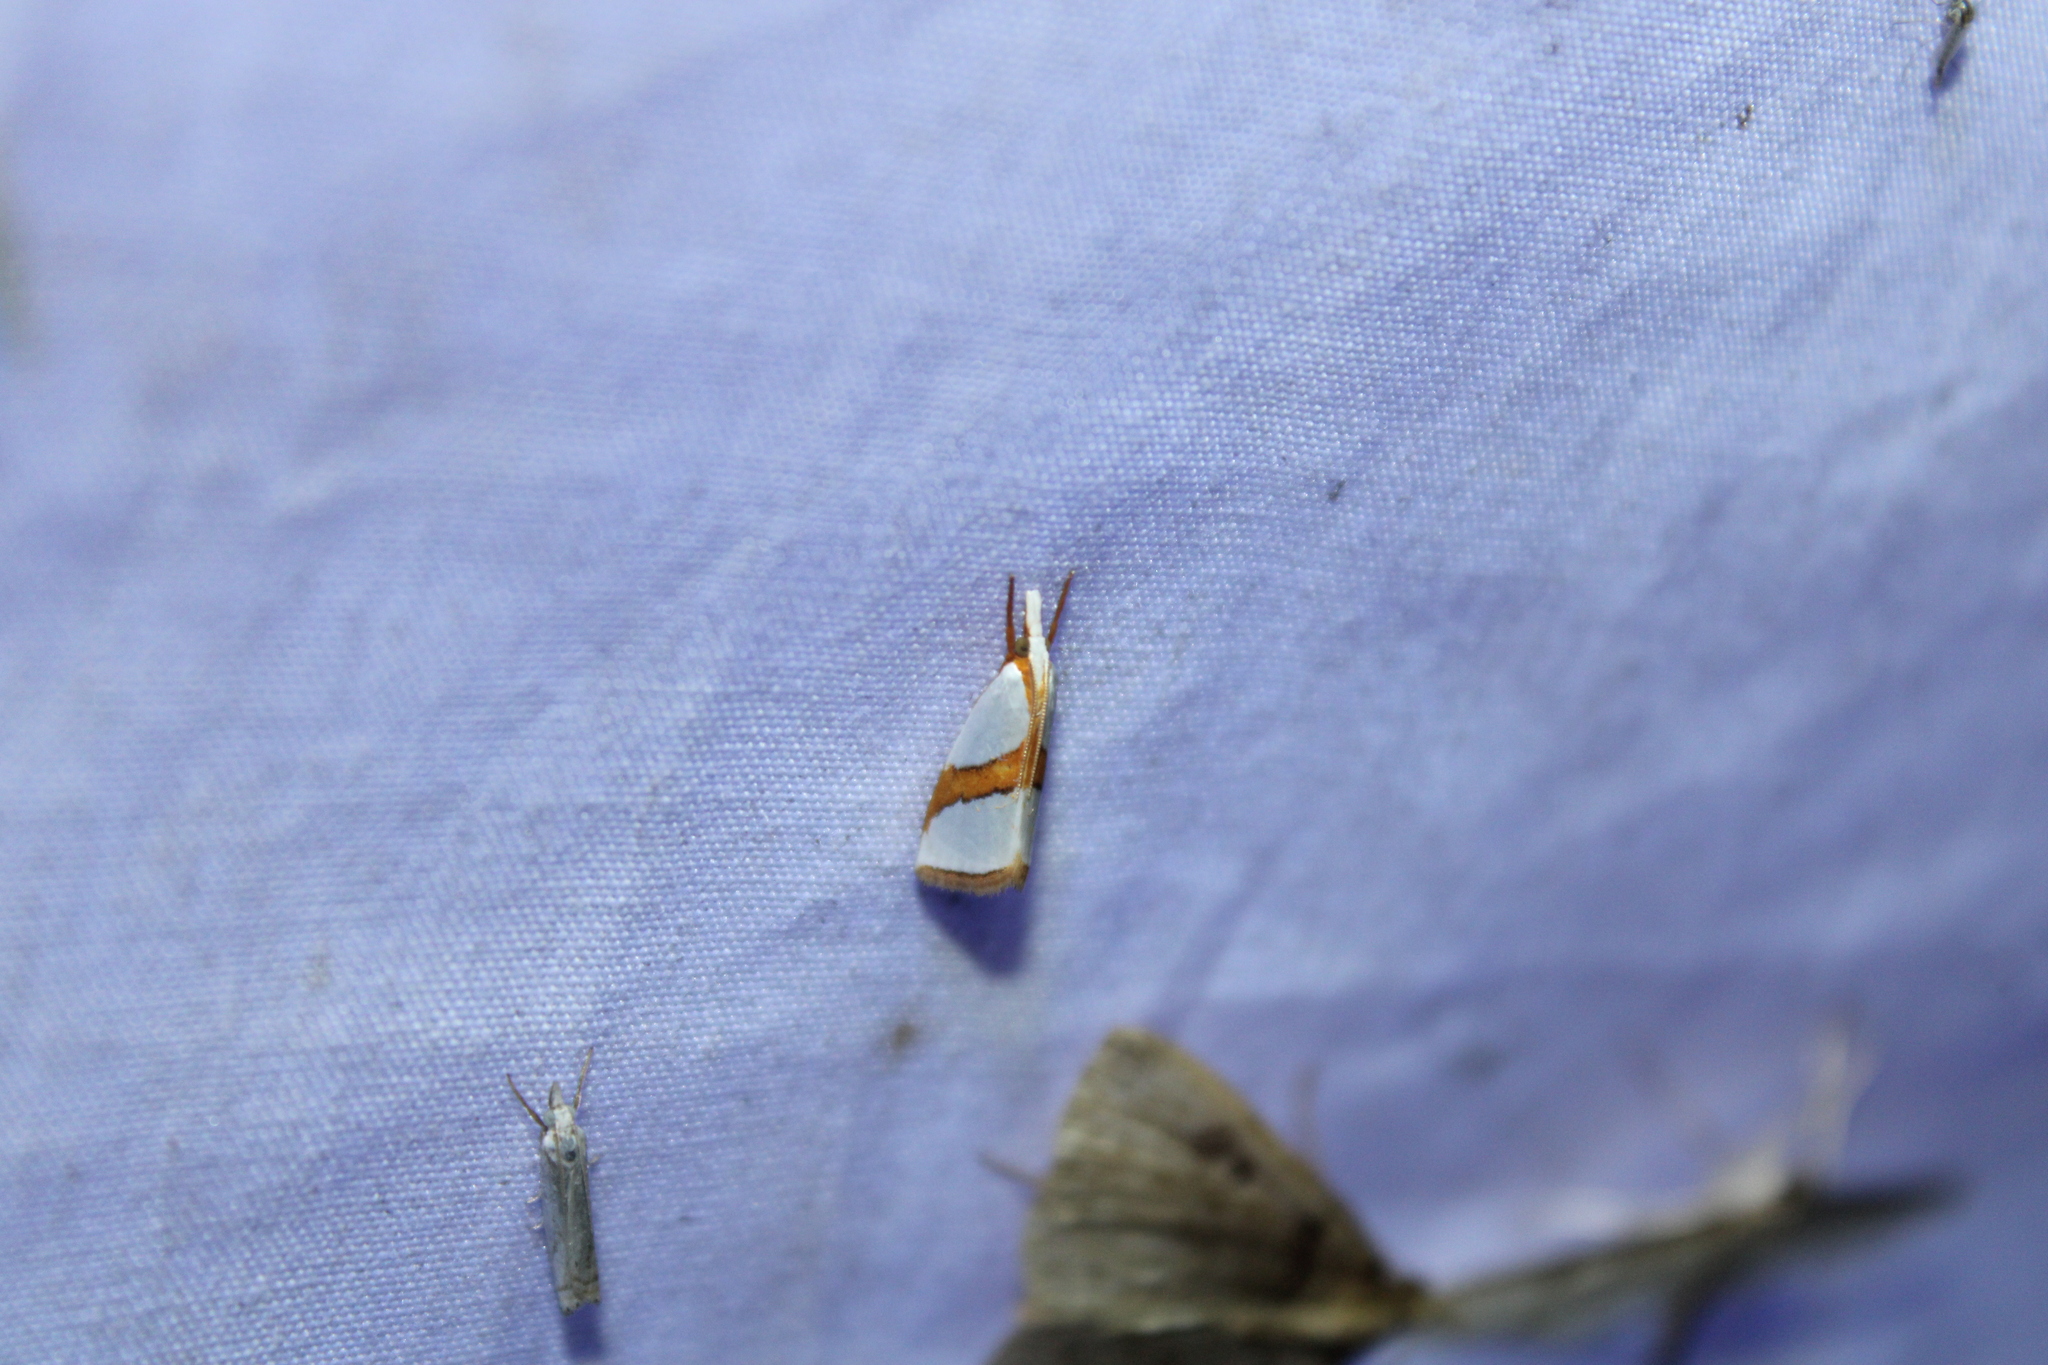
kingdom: Animalia
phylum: Arthropoda
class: Insecta
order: Lepidoptera
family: Crambidae
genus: Vaxi
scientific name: Vaxi critica
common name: Straight-lined vaxi moth
